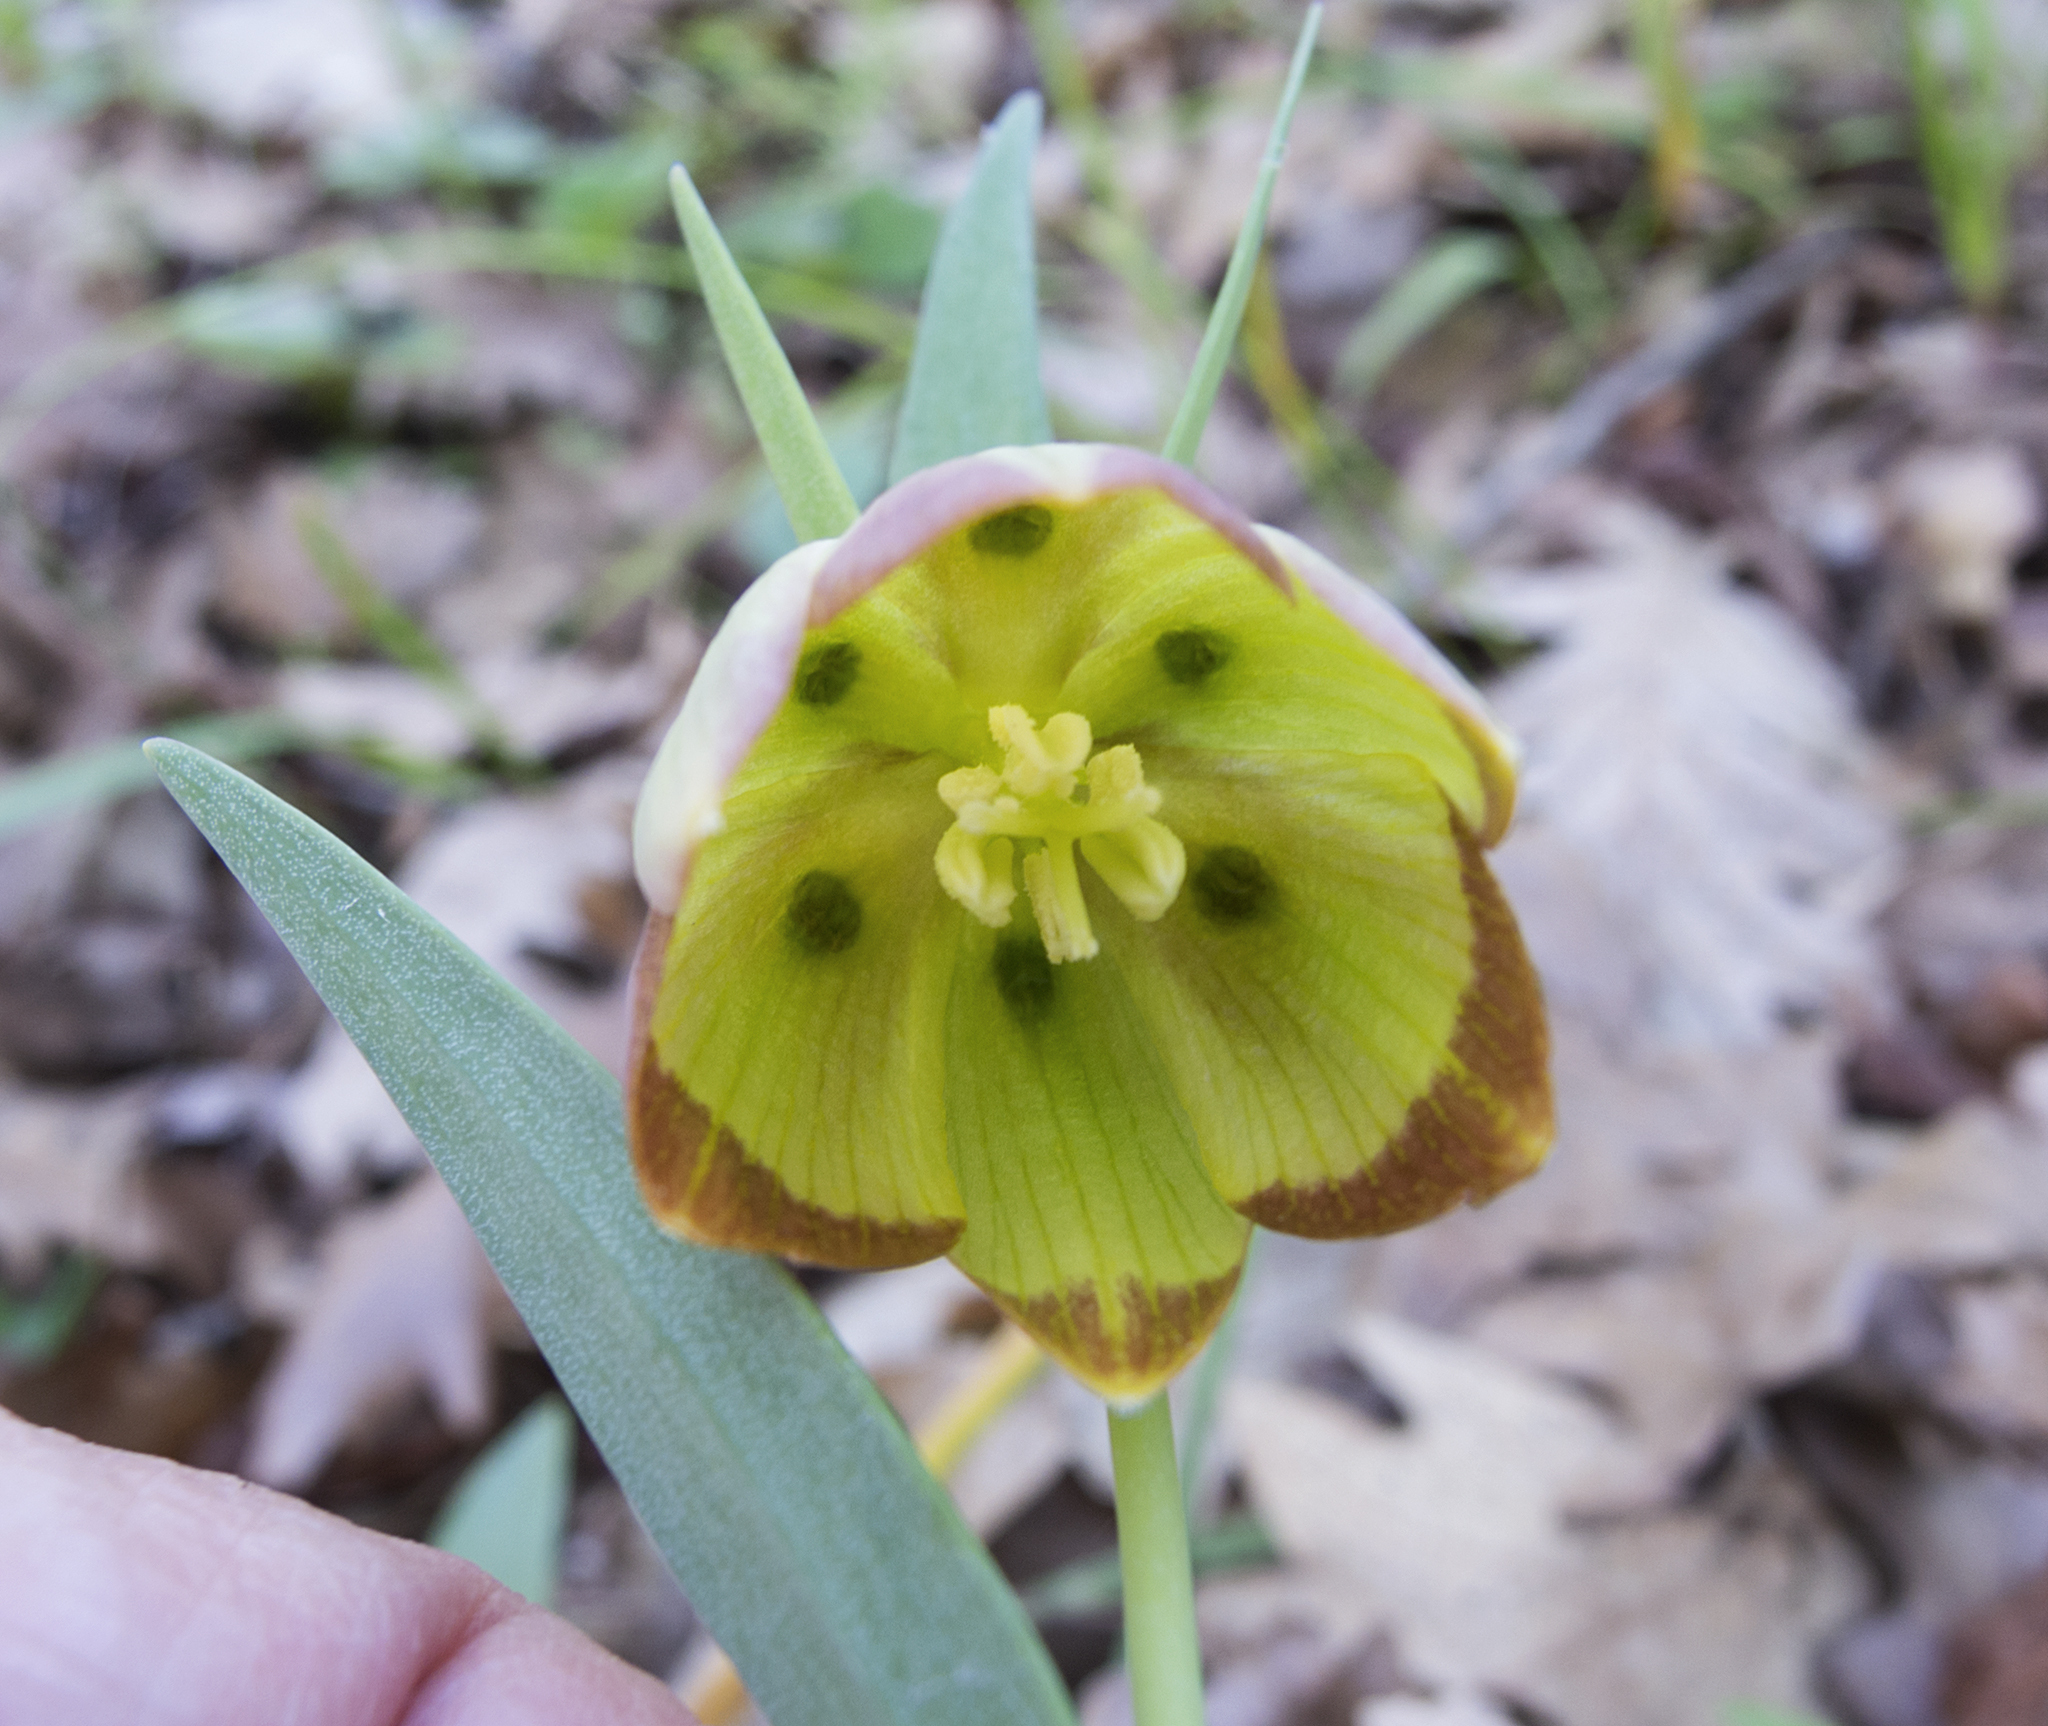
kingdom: Plantae
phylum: Tracheophyta
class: Liliopsida
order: Liliales
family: Liliaceae
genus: Fritillaria
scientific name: Fritillaria pontica
